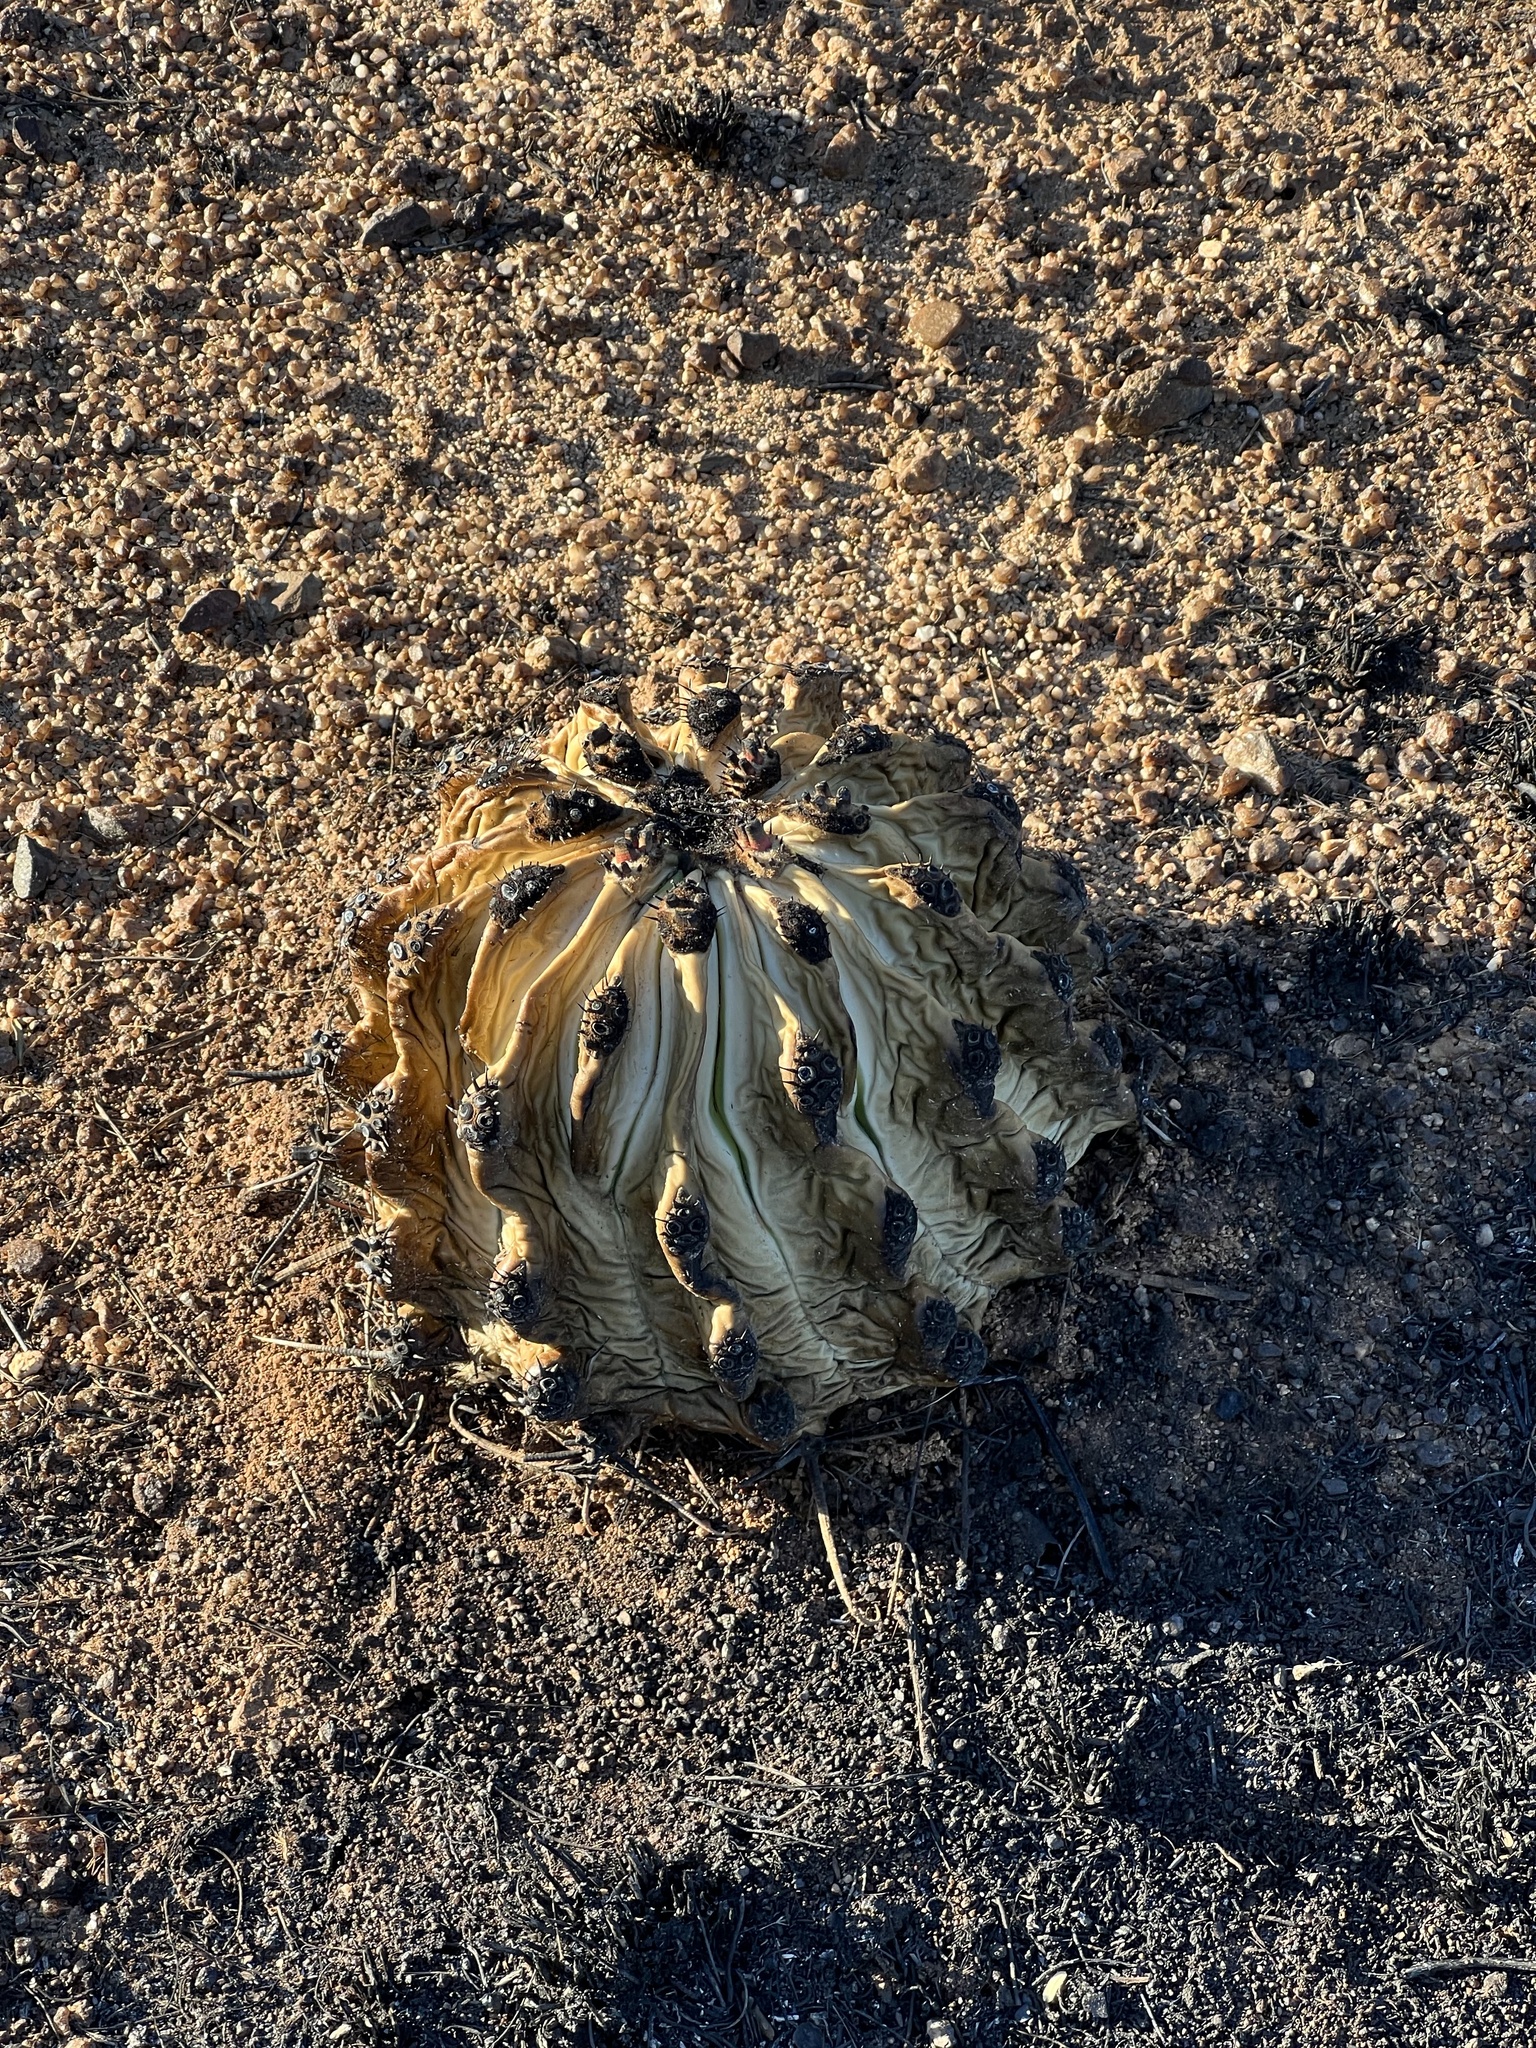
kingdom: Plantae
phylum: Tracheophyta
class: Magnoliopsida
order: Caryophyllales
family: Cactaceae
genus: Ferocactus
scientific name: Ferocactus wislizeni
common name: Candy barrel cactus
